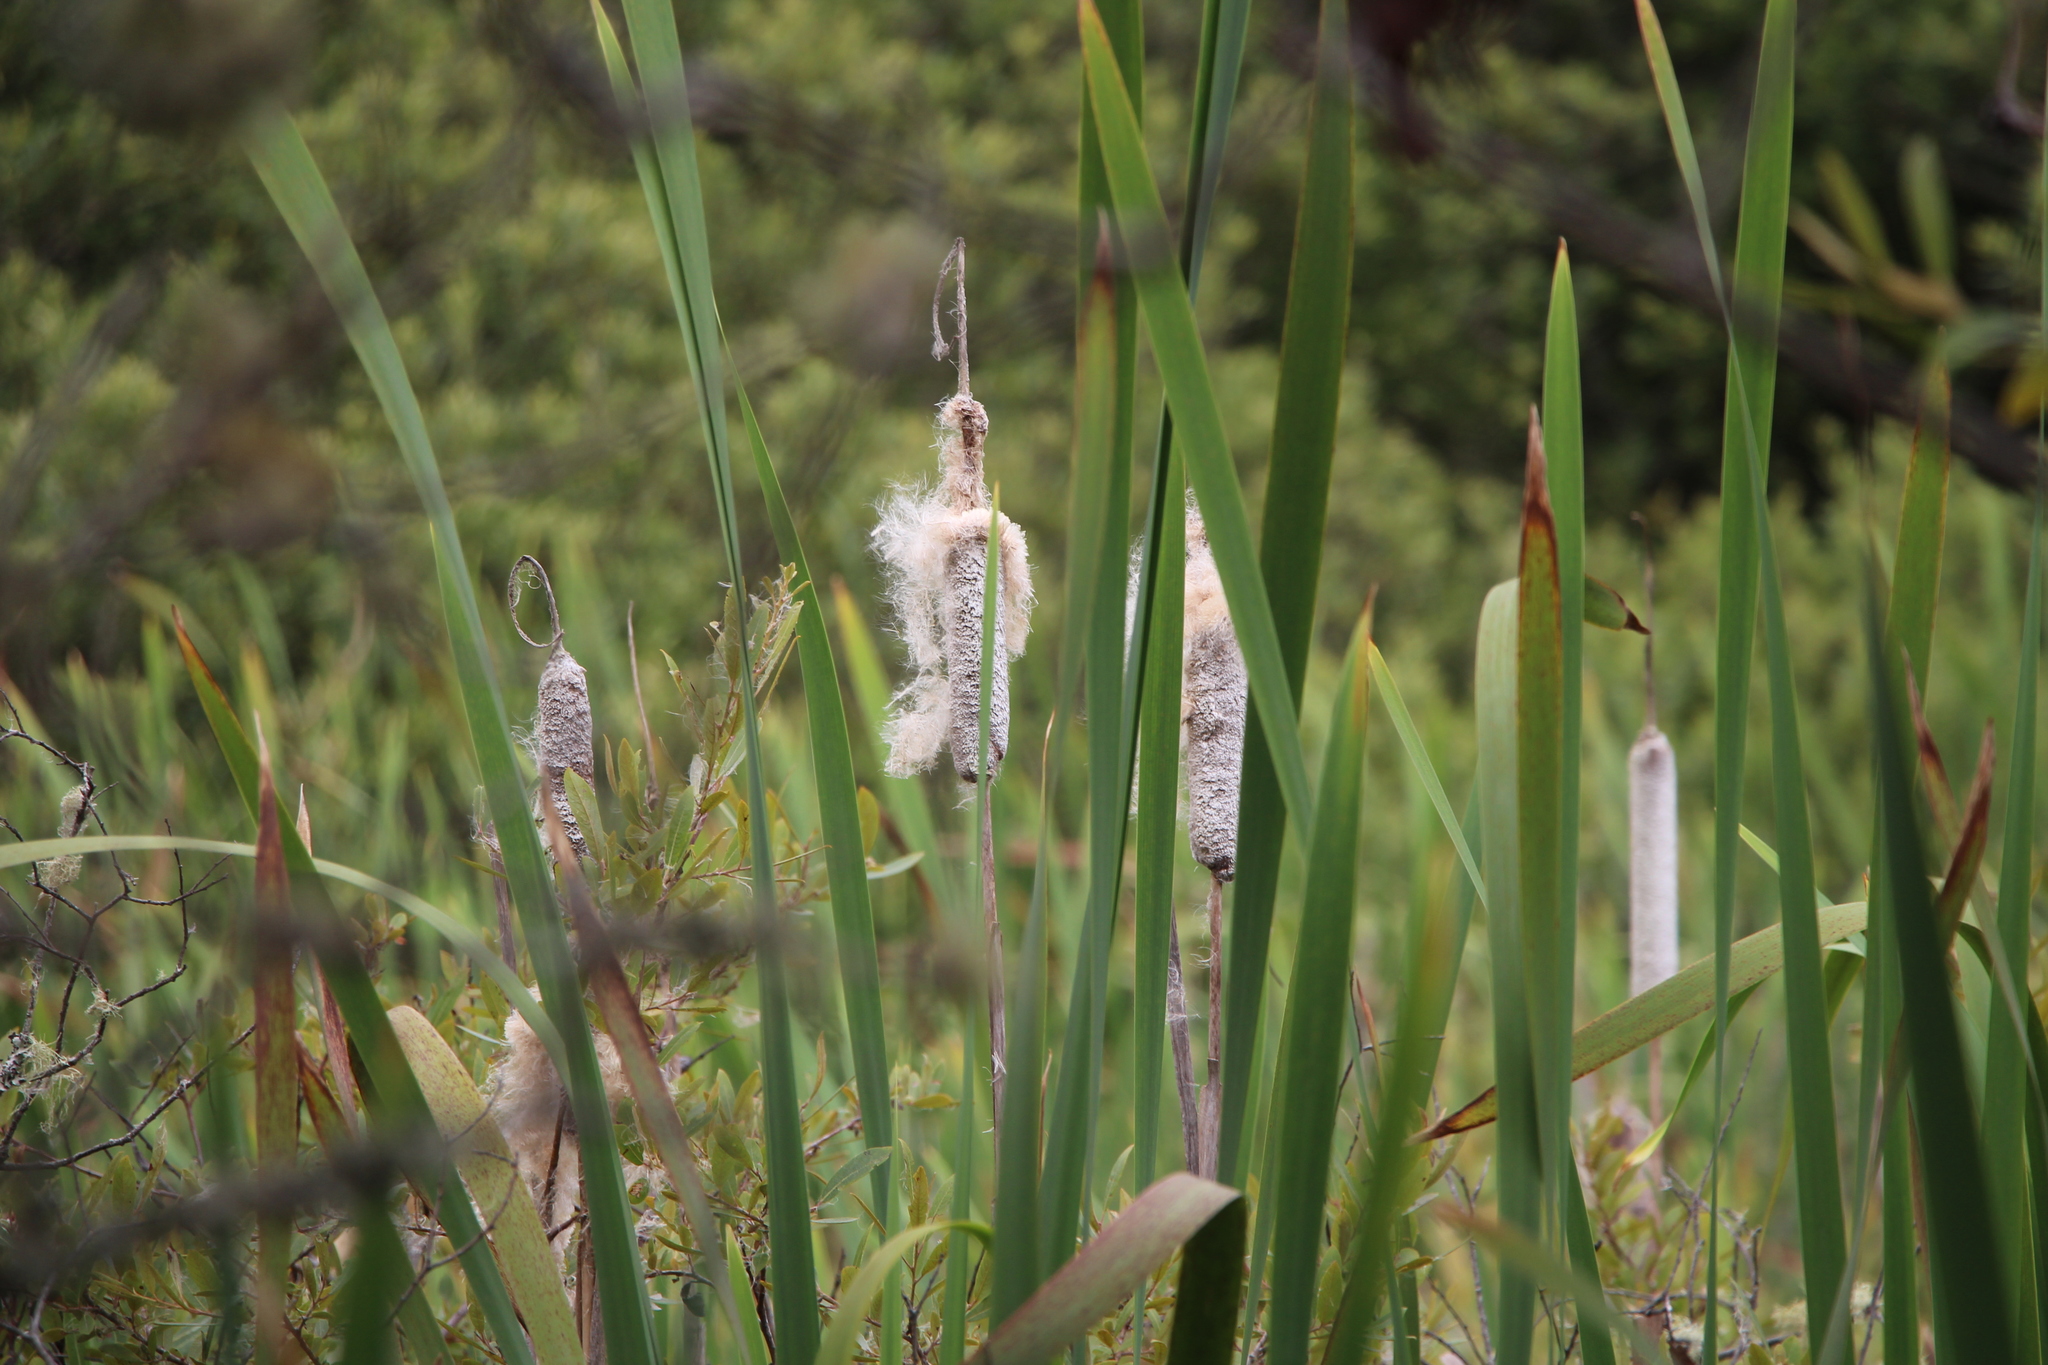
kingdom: Plantae
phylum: Tracheophyta
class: Liliopsida
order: Poales
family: Typhaceae
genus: Typha
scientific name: Typha latifolia
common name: Broadleaf cattail
